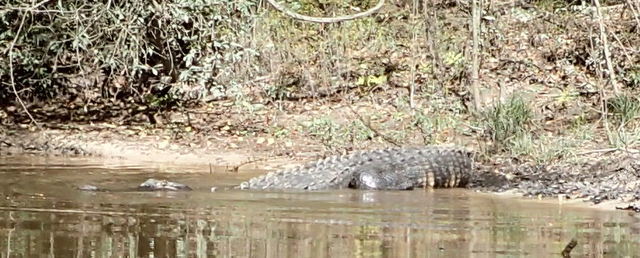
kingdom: Animalia
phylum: Chordata
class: Crocodylia
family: Alligatoridae
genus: Alligator
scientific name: Alligator mississippiensis
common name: American alligator
